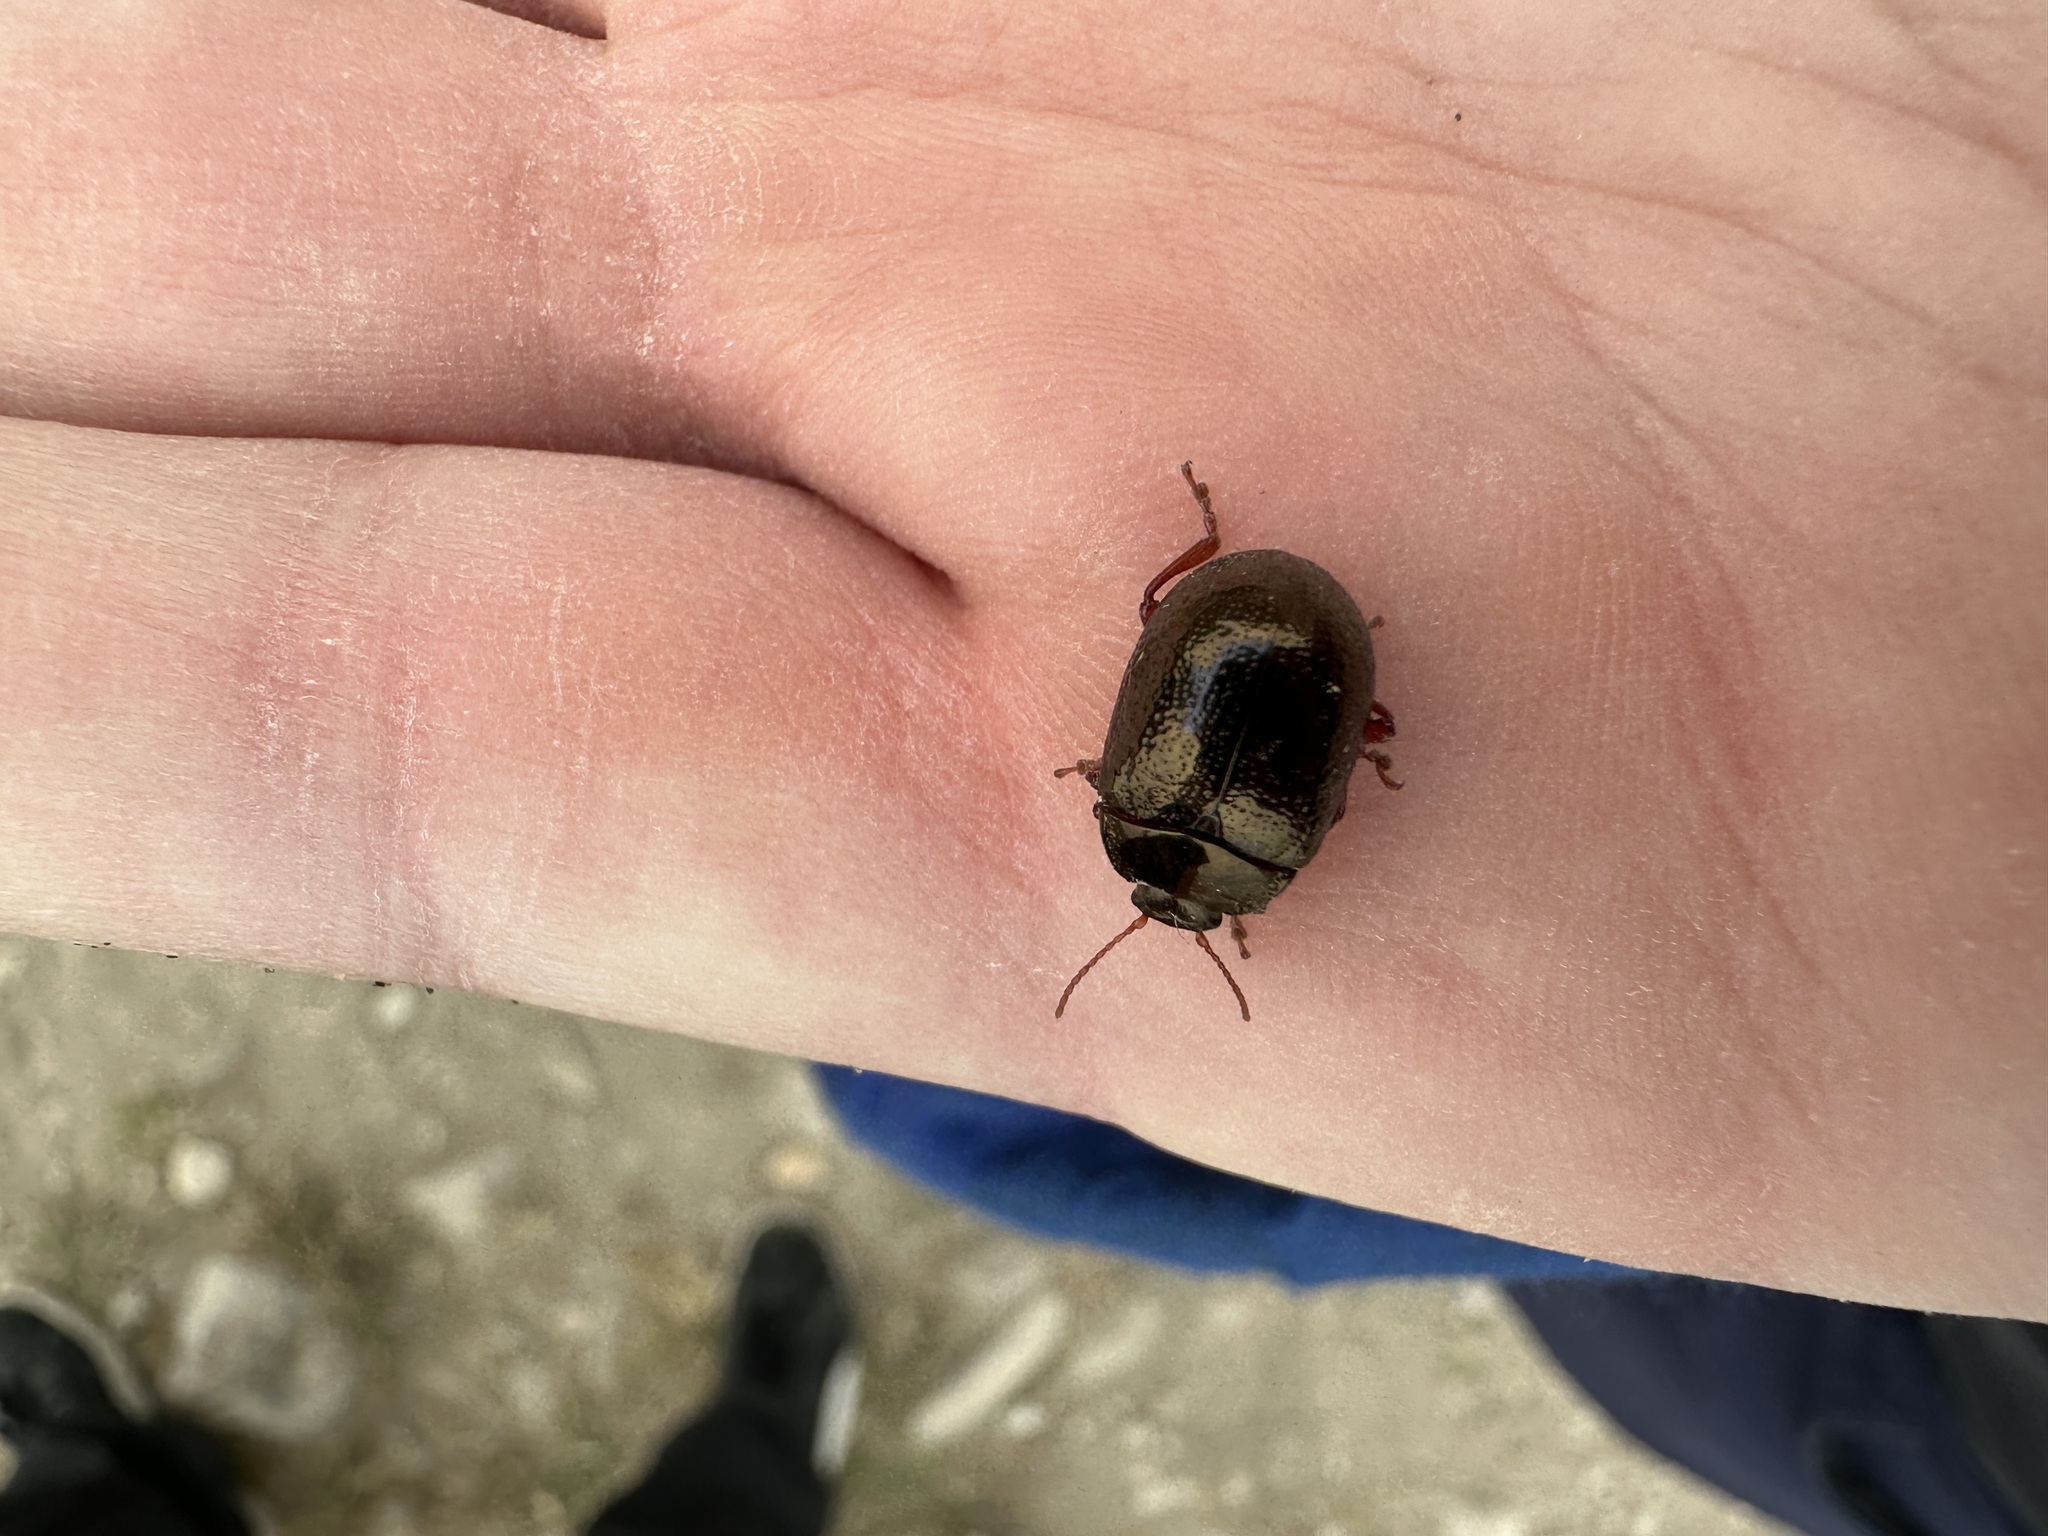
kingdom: Animalia
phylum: Arthropoda
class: Insecta
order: Coleoptera
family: Chrysomelidae
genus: Chrysolina
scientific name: Chrysolina bankii
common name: Leaf beetle
